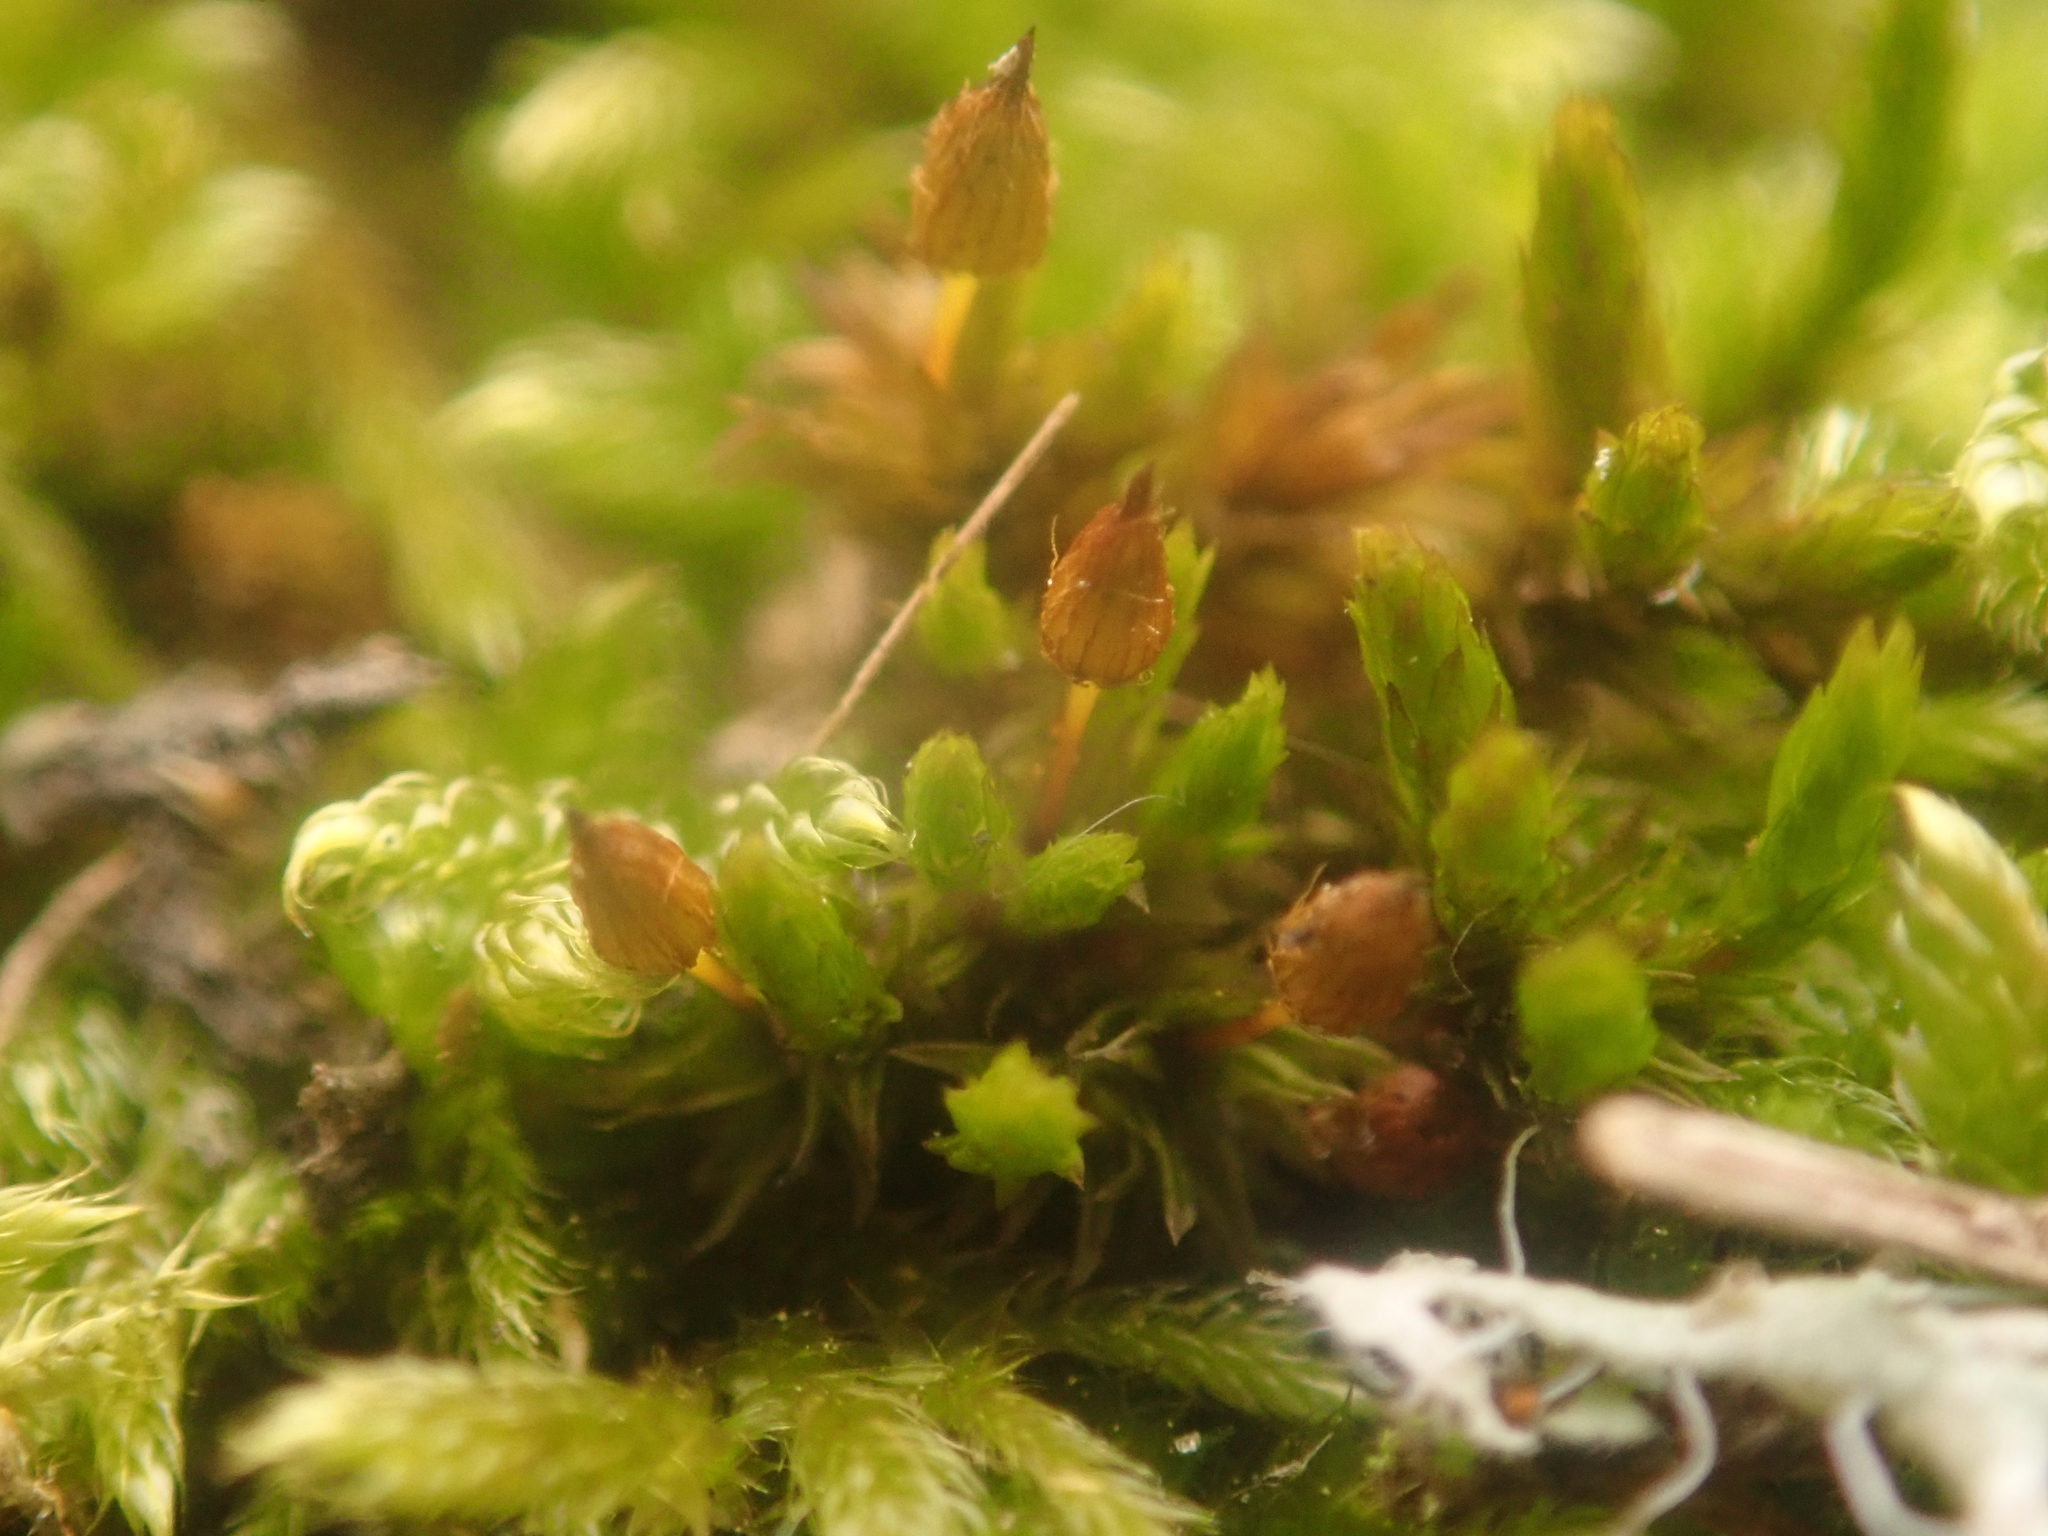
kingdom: Plantae
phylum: Bryophyta
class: Bryopsida
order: Orthotrichales
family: Orthotrichaceae
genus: Orthotrichum
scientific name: Orthotrichum anomalum
